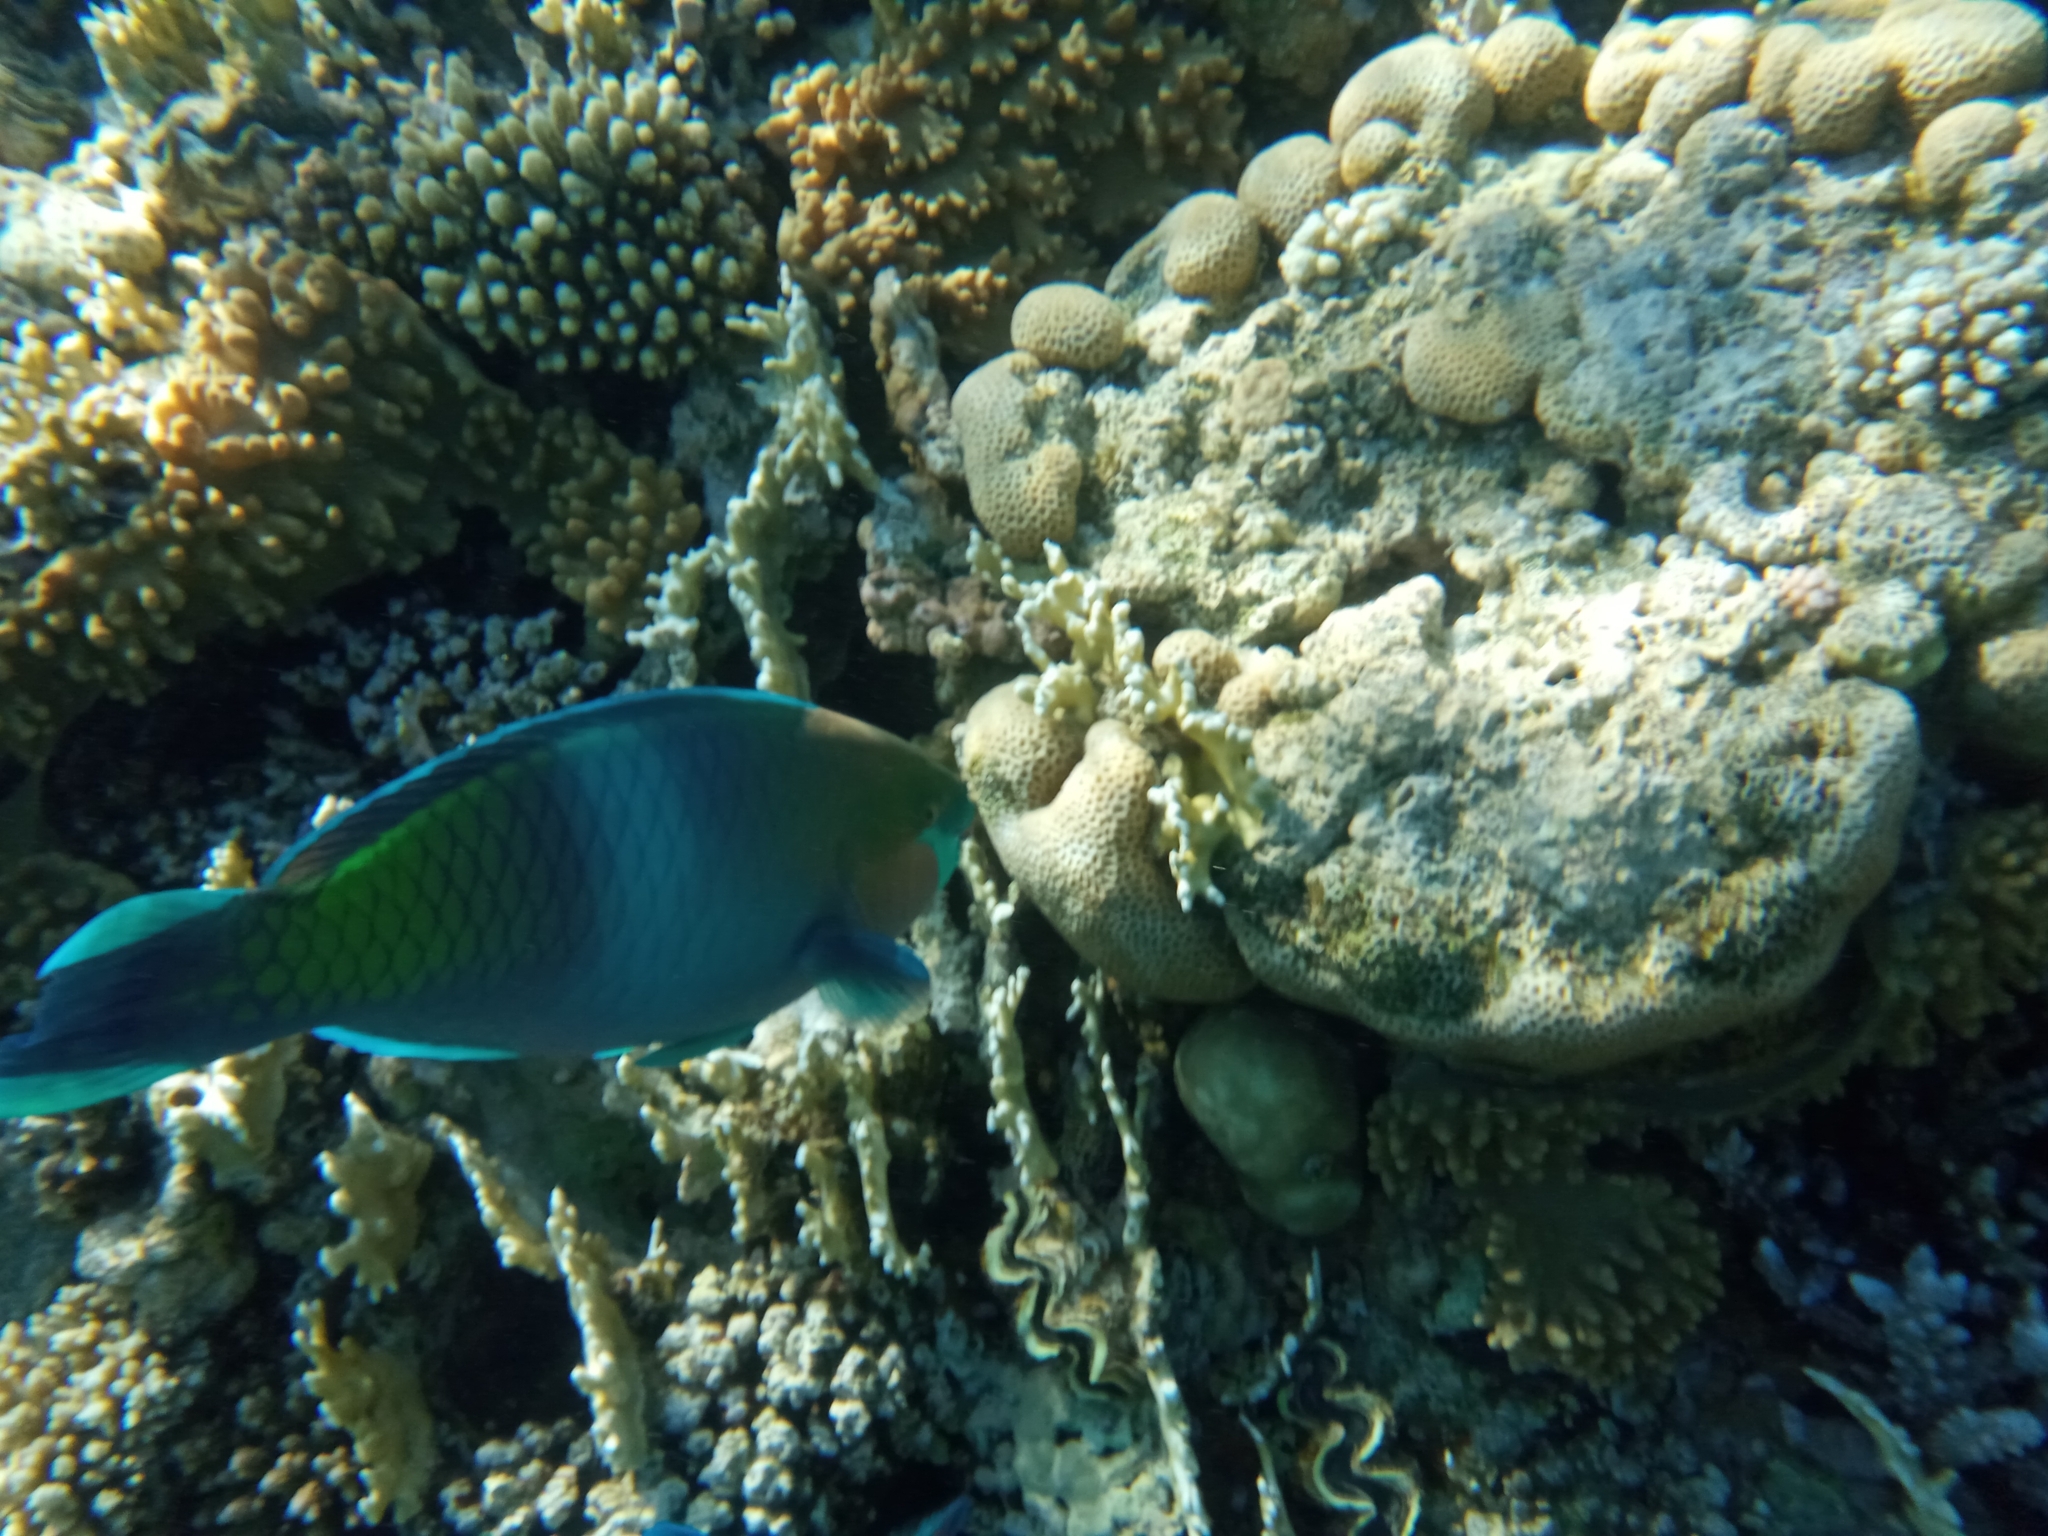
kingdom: Animalia
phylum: Chordata
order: Perciformes
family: Scaridae
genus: Scarus
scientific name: Scarus ferrugineus
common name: Rusty parrotfish
